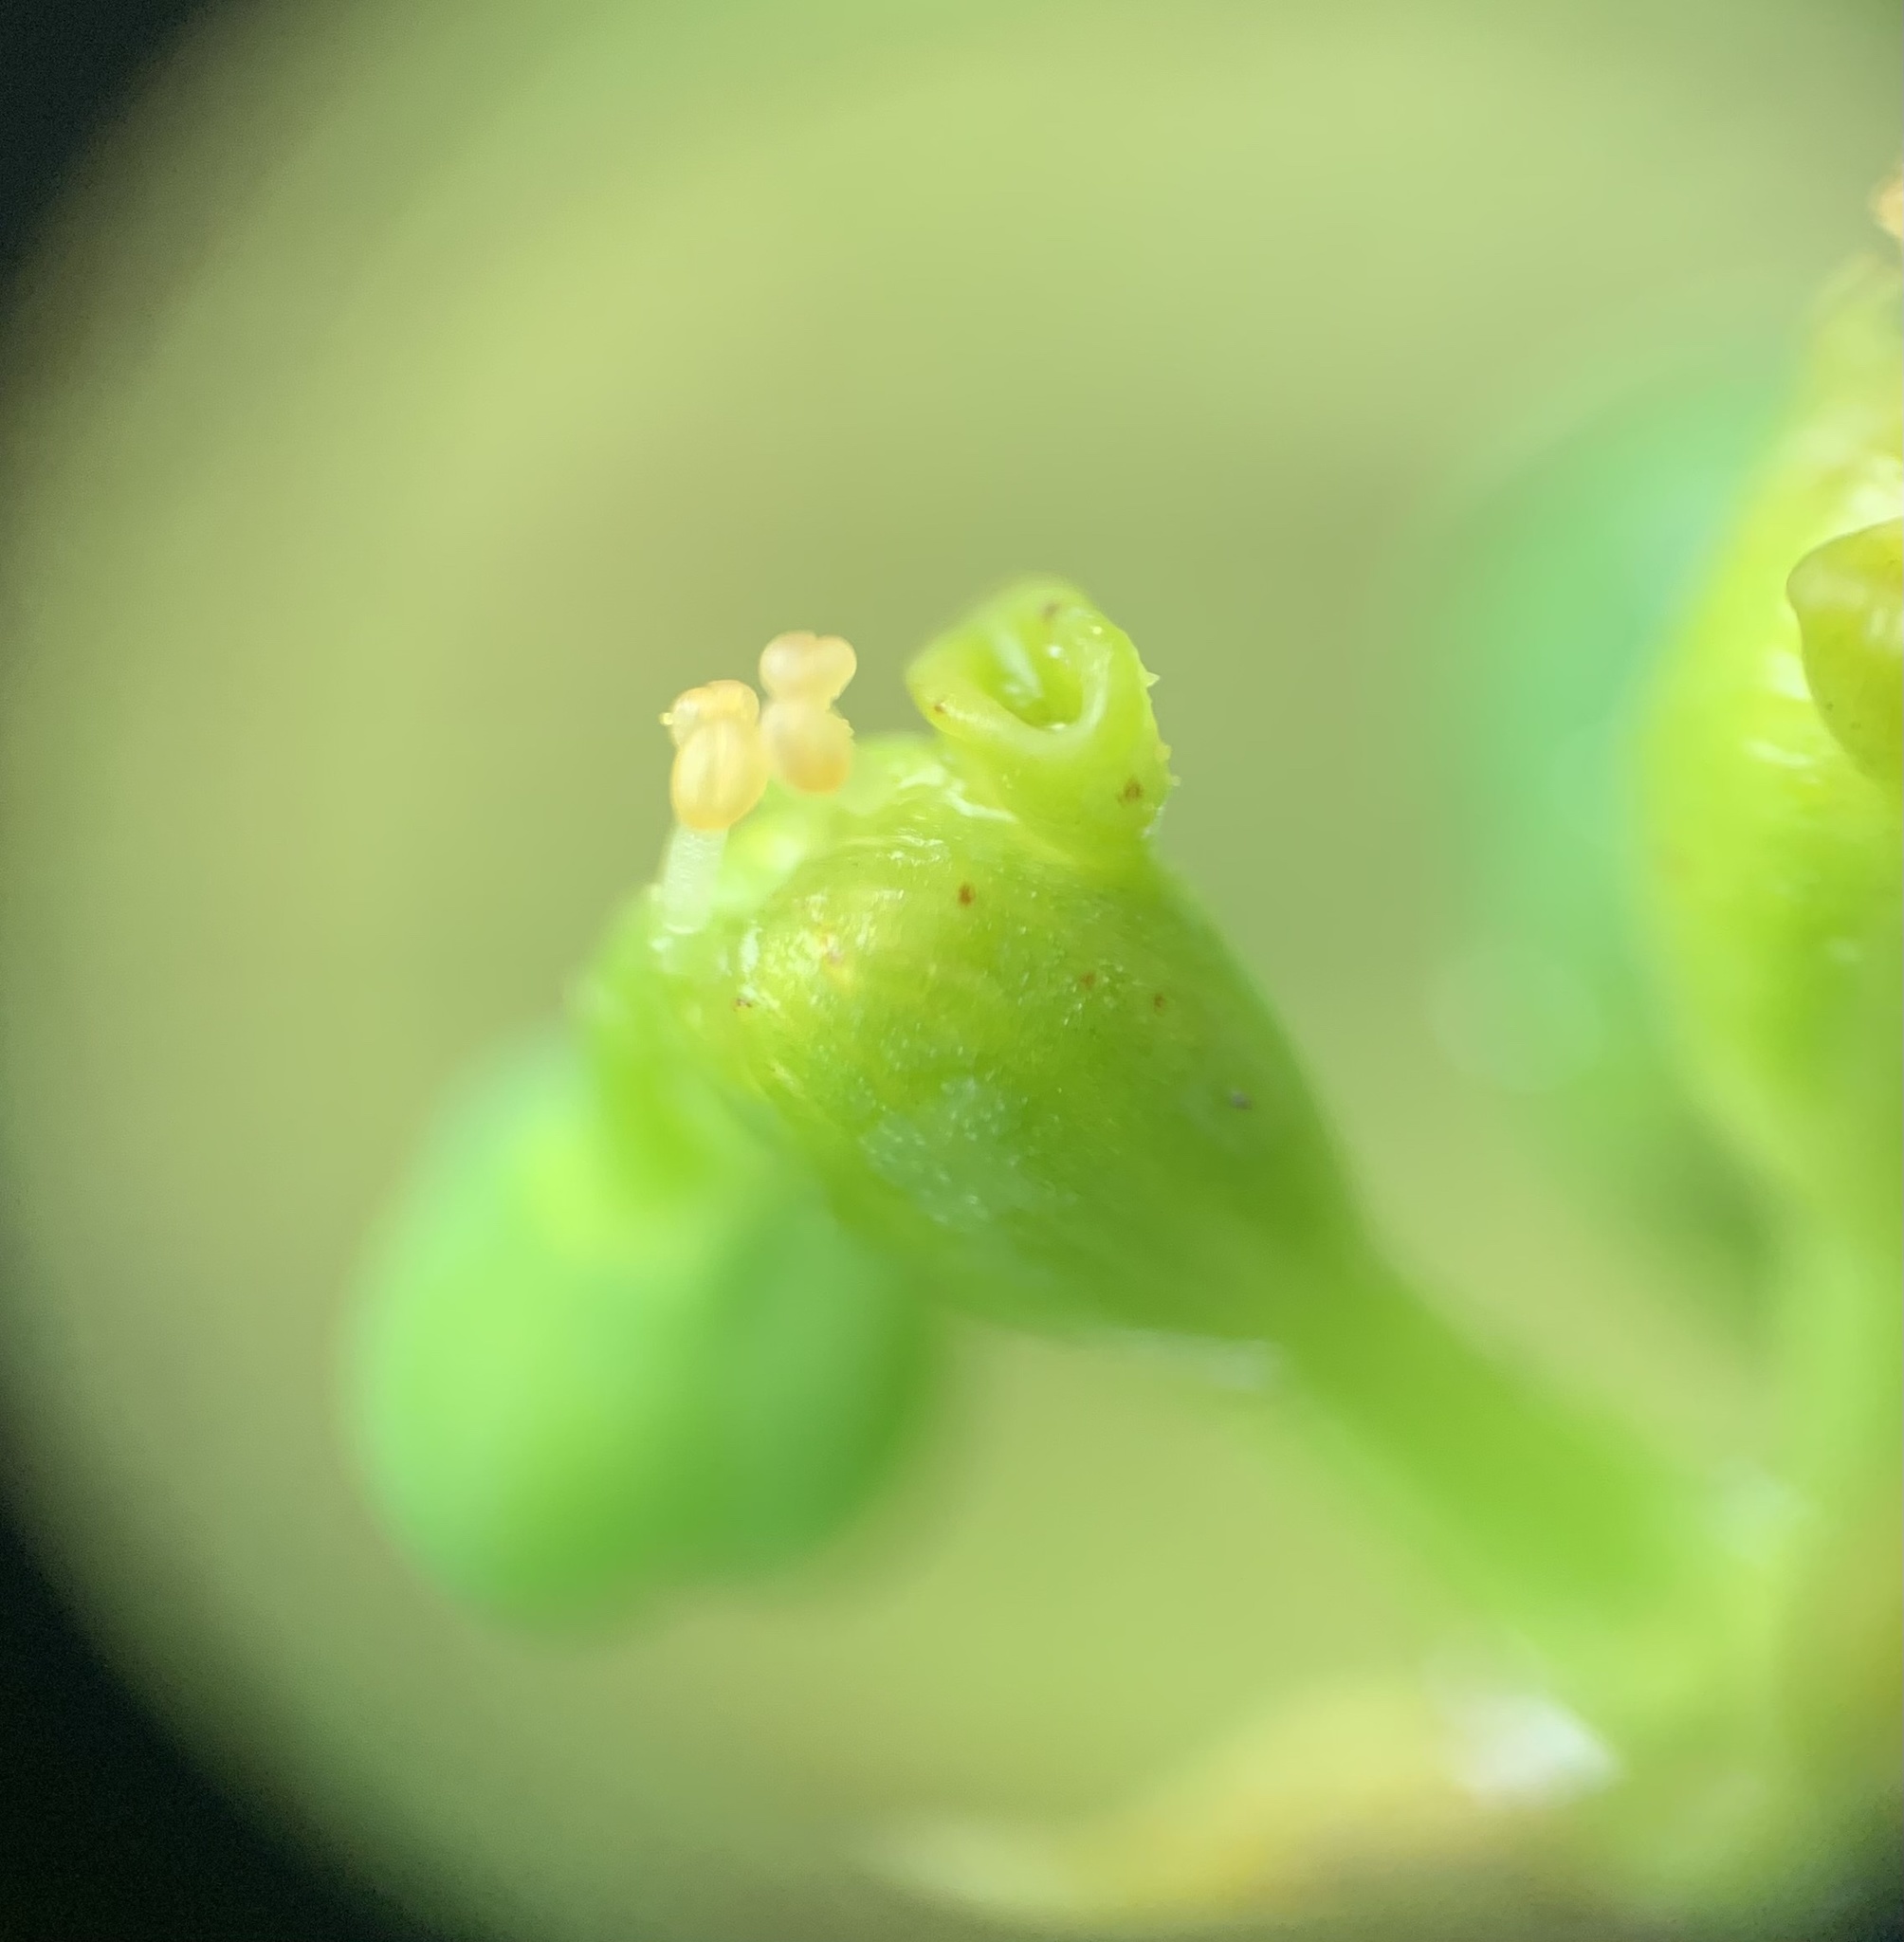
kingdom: Plantae
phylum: Tracheophyta
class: Magnoliopsida
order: Malpighiales
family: Euphorbiaceae
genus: Euphorbia
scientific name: Euphorbia heterophylla
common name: Mexican fireplant
